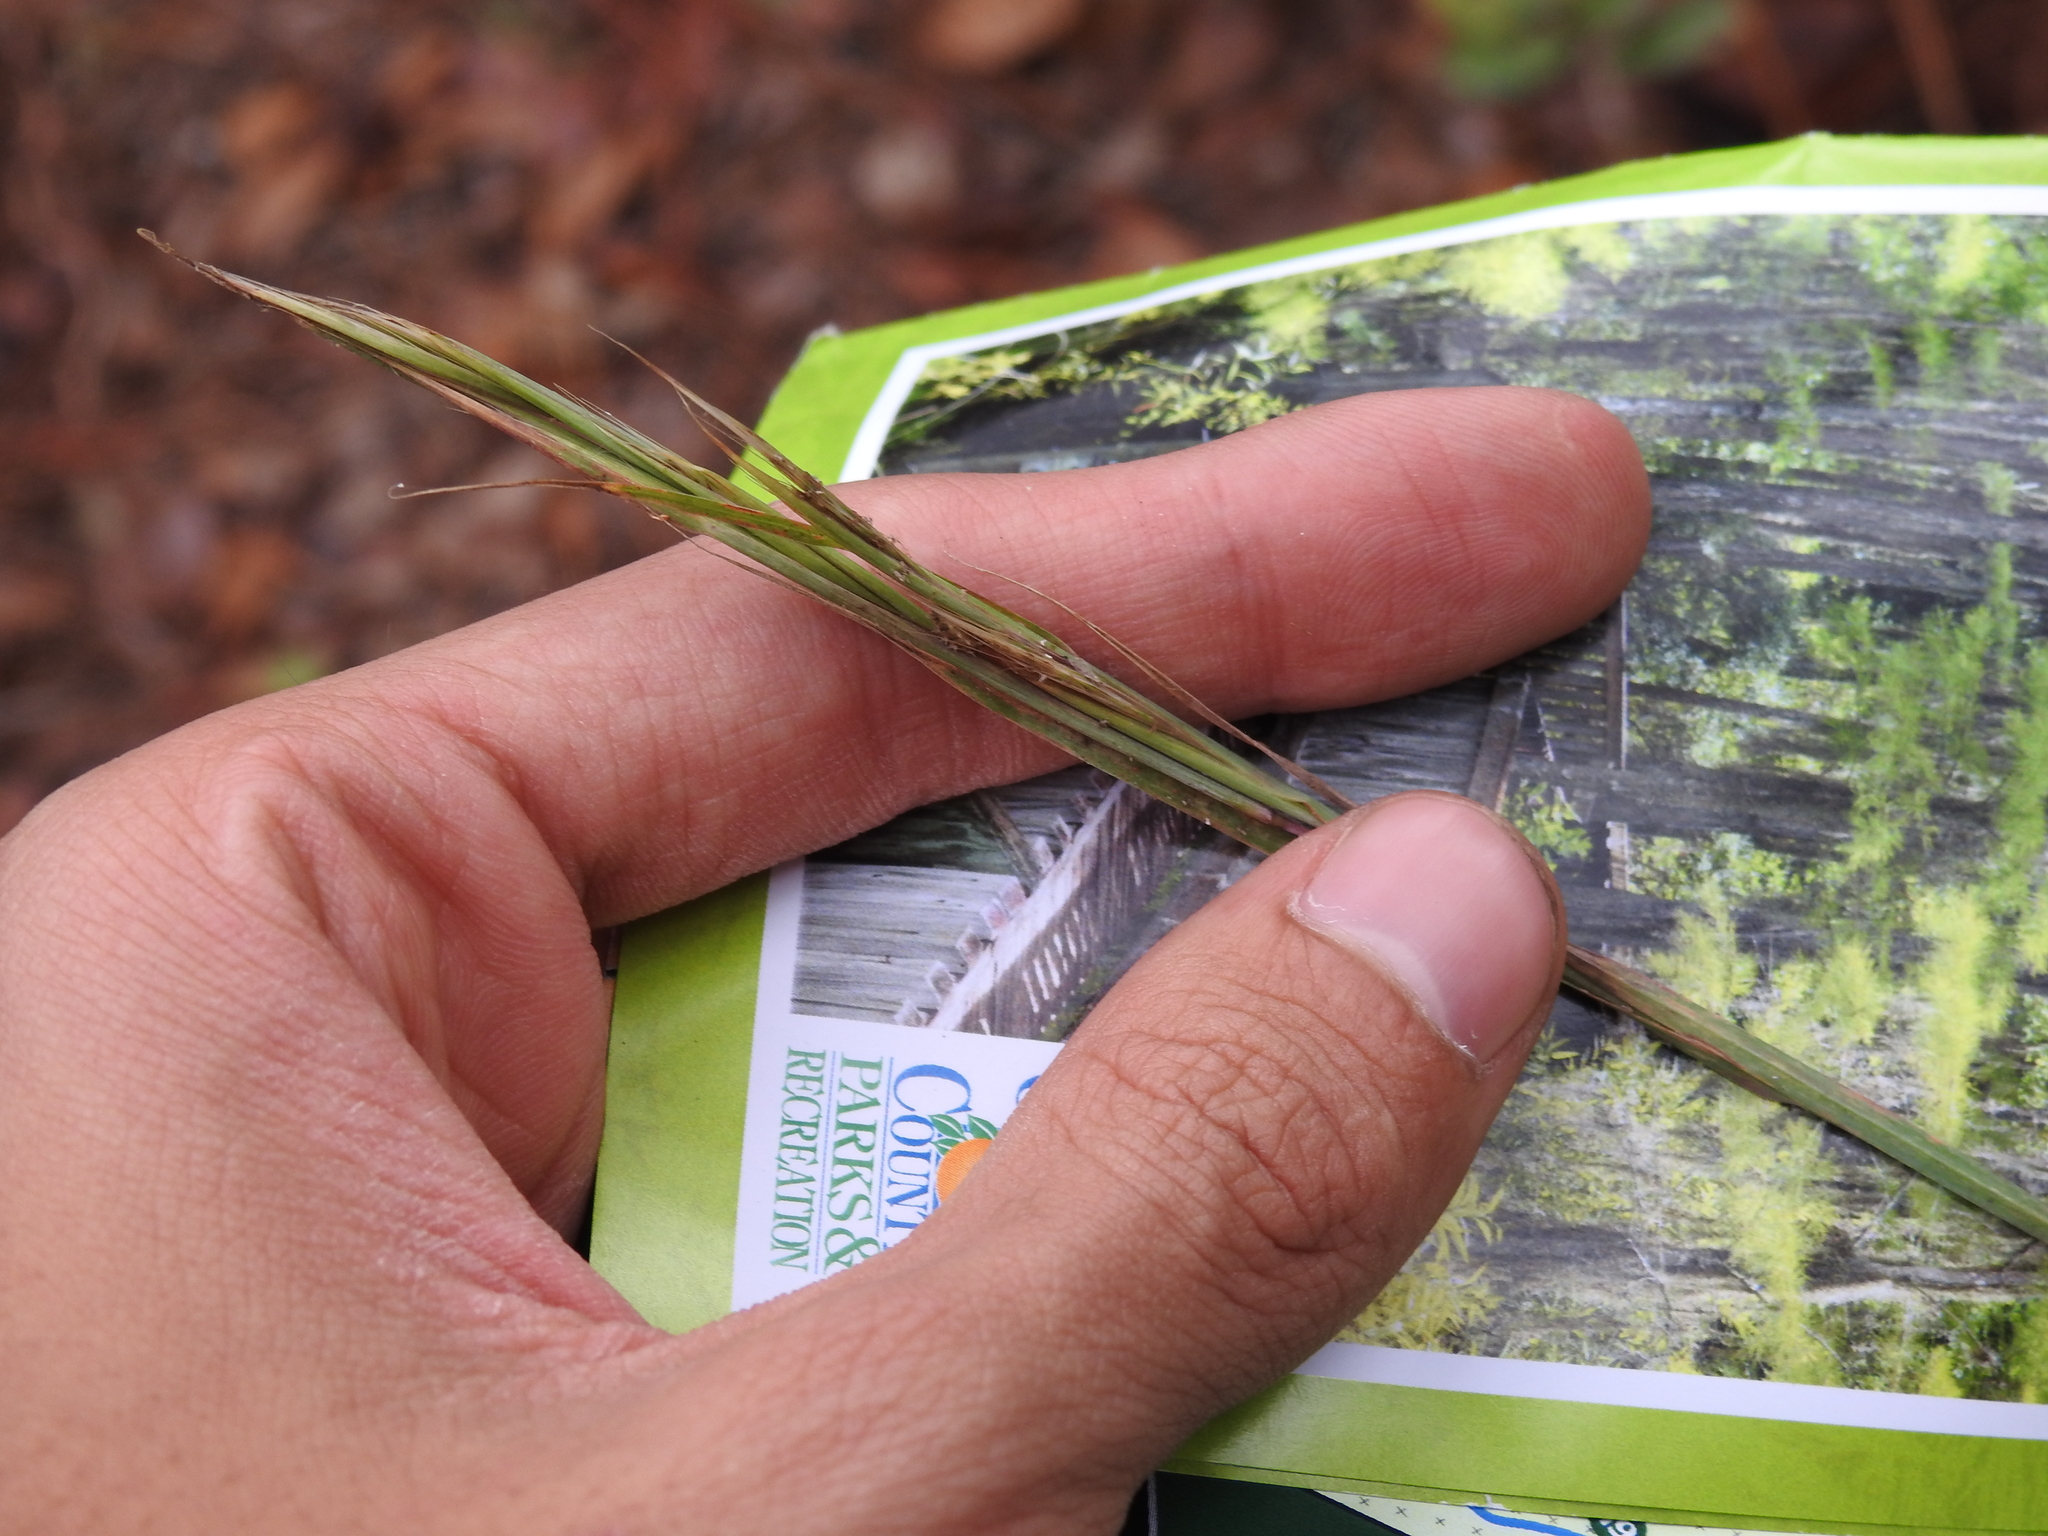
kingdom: Plantae
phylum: Tracheophyta
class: Liliopsida
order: Poales
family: Poaceae
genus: Andropogon
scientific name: Andropogon cretaceus
